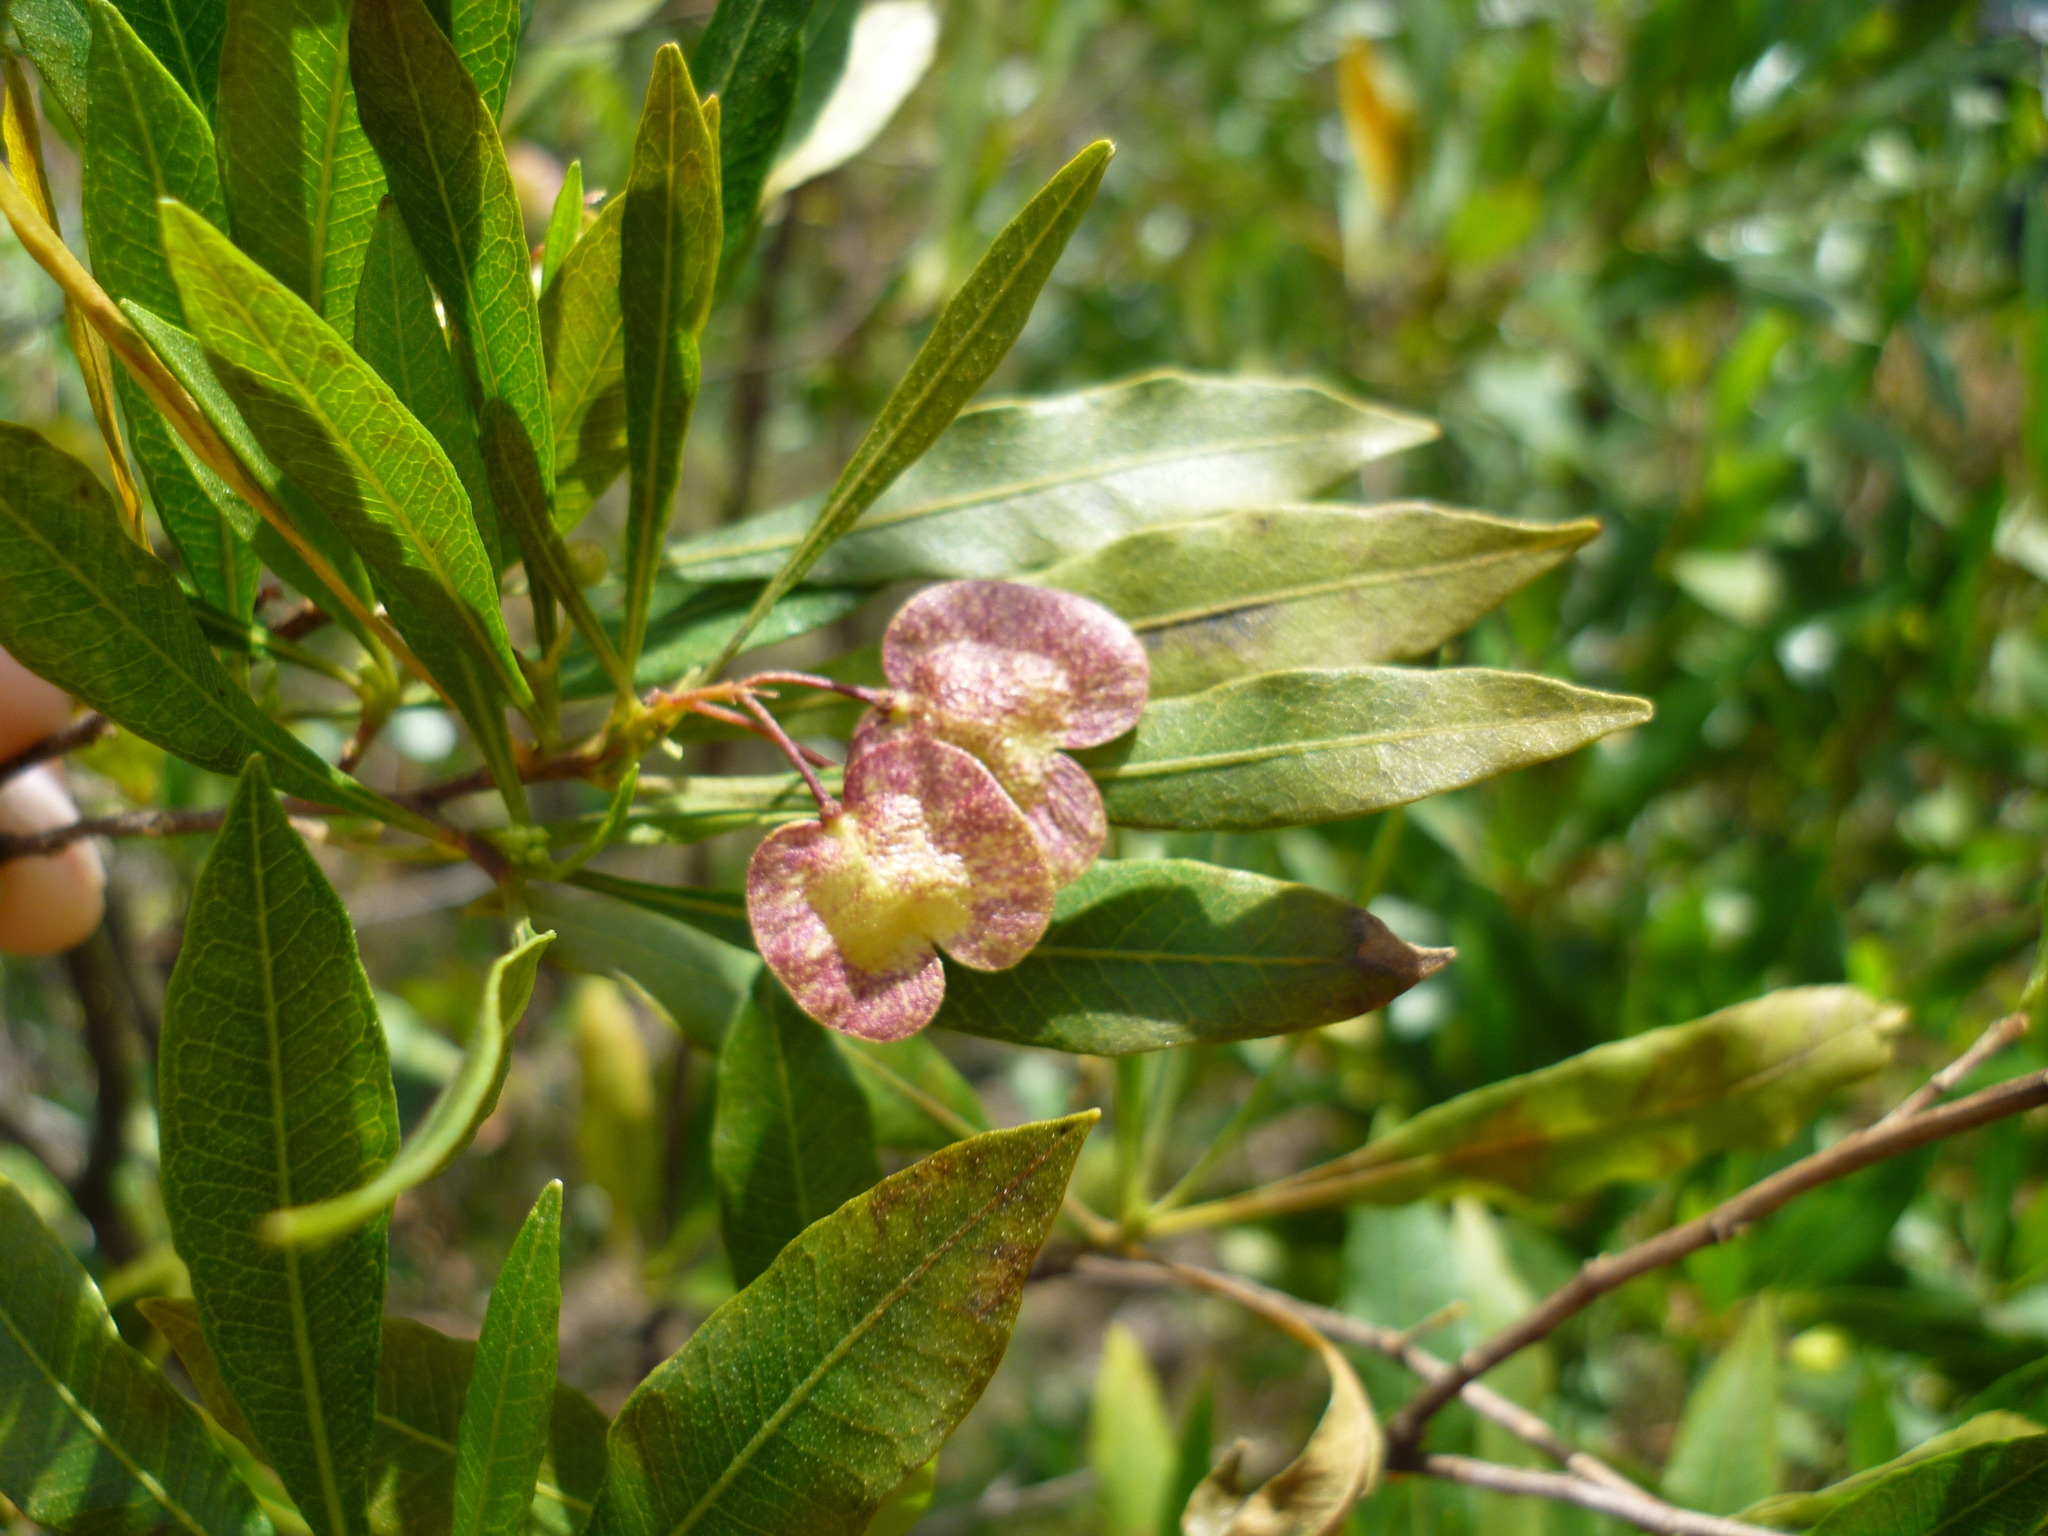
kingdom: Plantae
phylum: Tracheophyta
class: Magnoliopsida
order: Sapindales
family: Sapindaceae
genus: Dodonaea
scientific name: Dodonaea viscosa
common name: Hopbush
